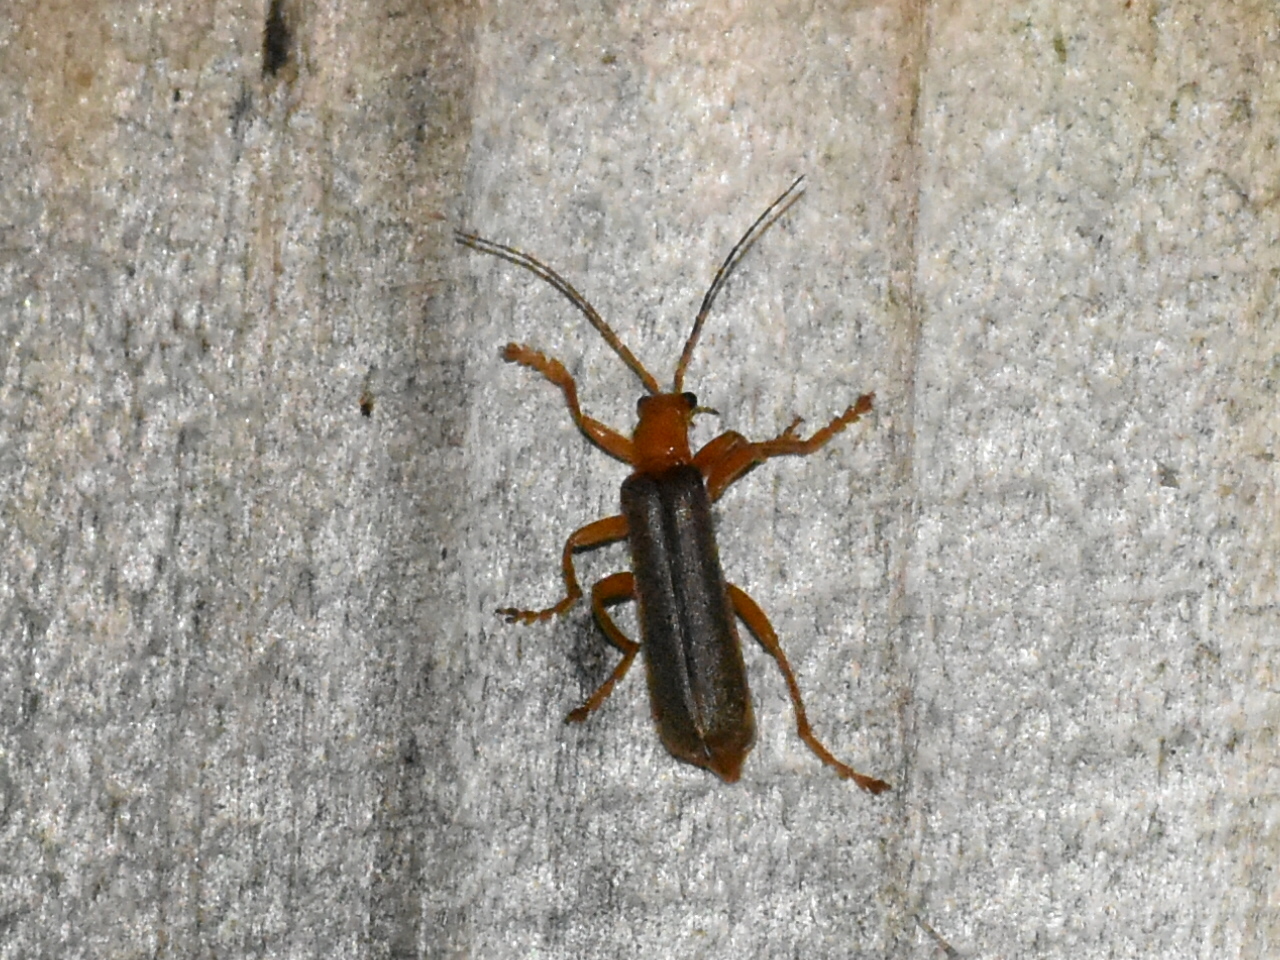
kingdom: Animalia
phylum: Arthropoda
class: Insecta
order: Coleoptera
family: Cantharidae
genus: Pacificanthia
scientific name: Pacificanthia rotundicollis
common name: Brown leatherwing beetle
